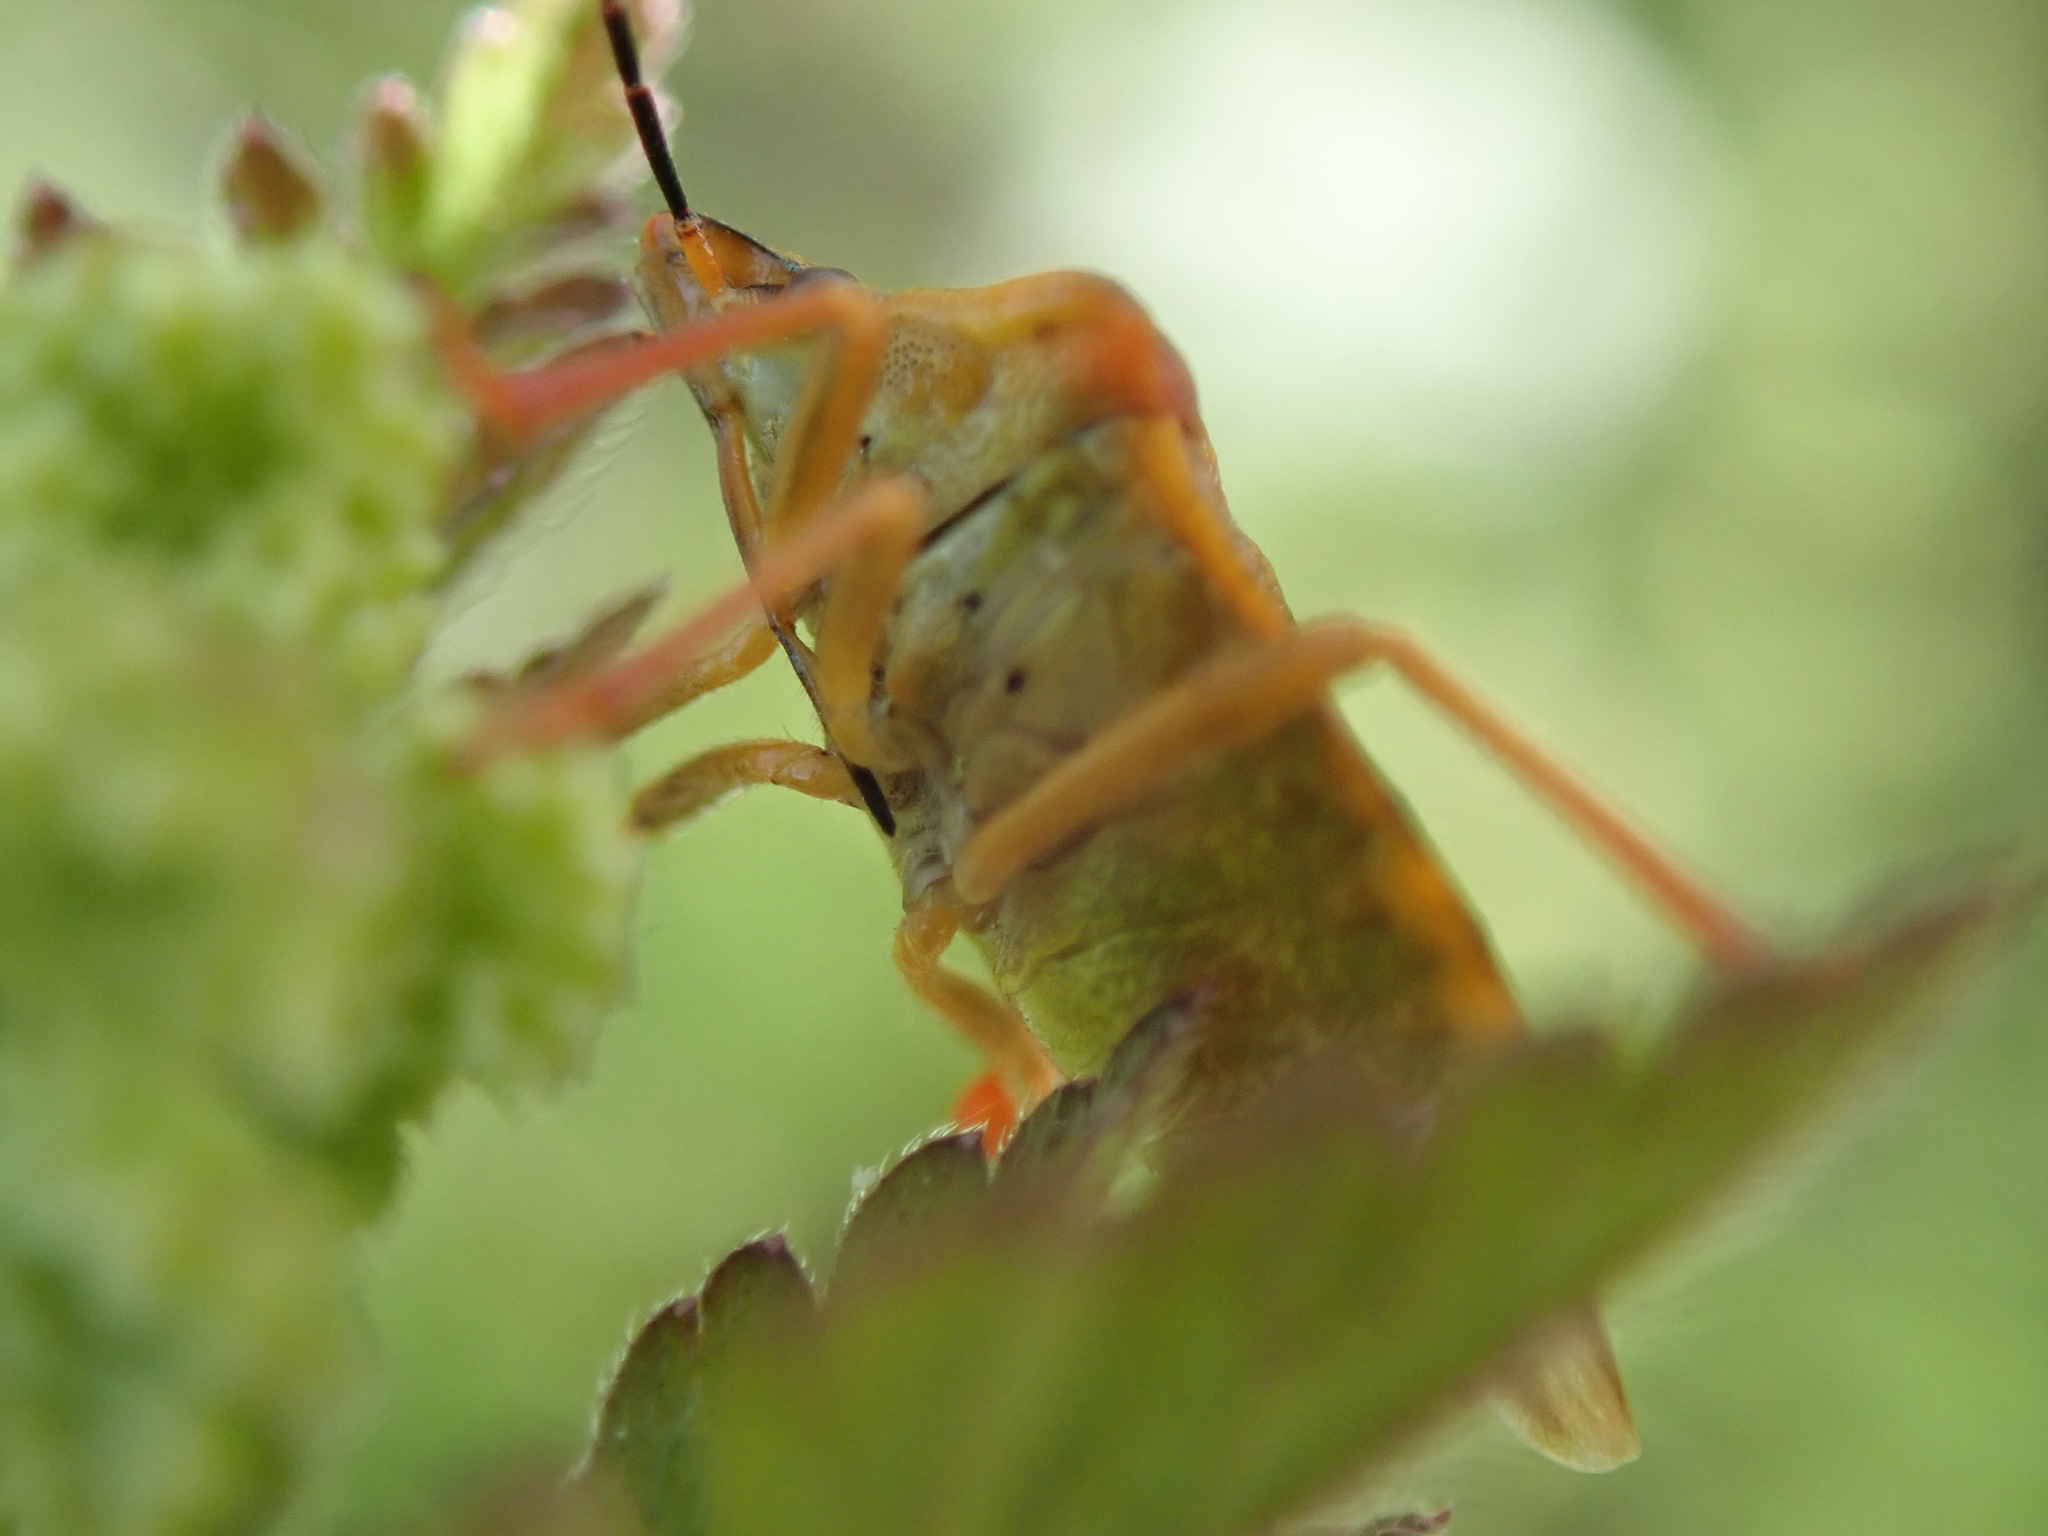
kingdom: Animalia
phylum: Arthropoda
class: Insecta
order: Hemiptera
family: Pentatomidae
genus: Carpocoris
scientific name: Carpocoris purpureipennis
